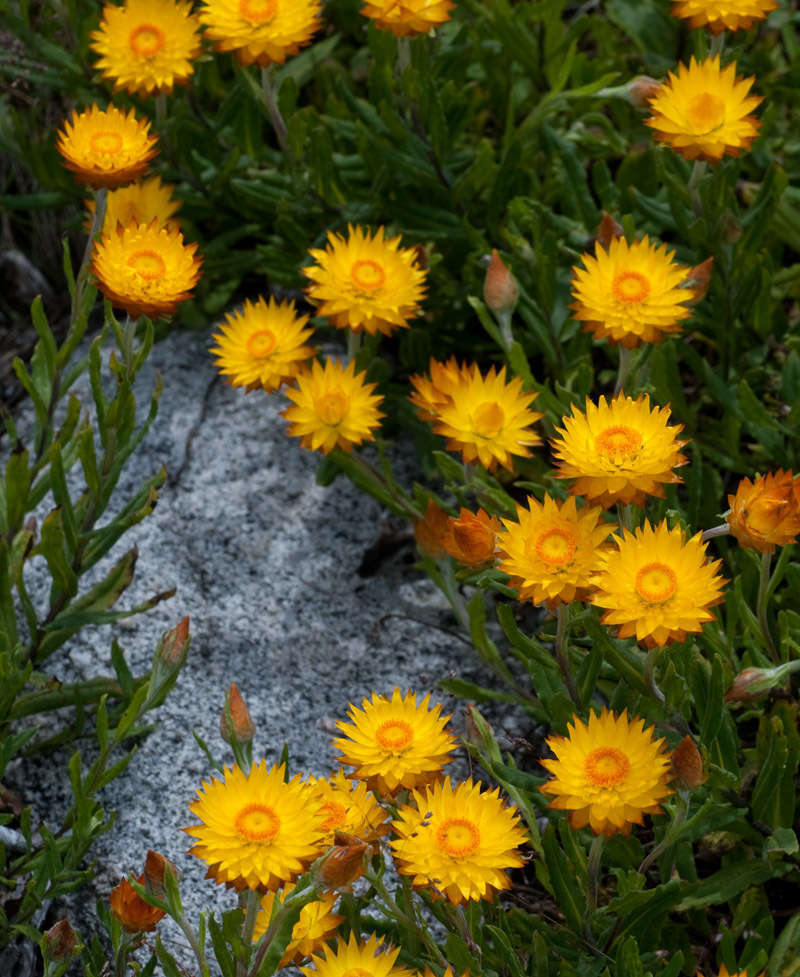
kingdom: Plantae
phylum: Tracheophyta
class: Magnoliopsida
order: Asterales
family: Asteraceae
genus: Xerochrysum
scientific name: Xerochrysum subundulatum
